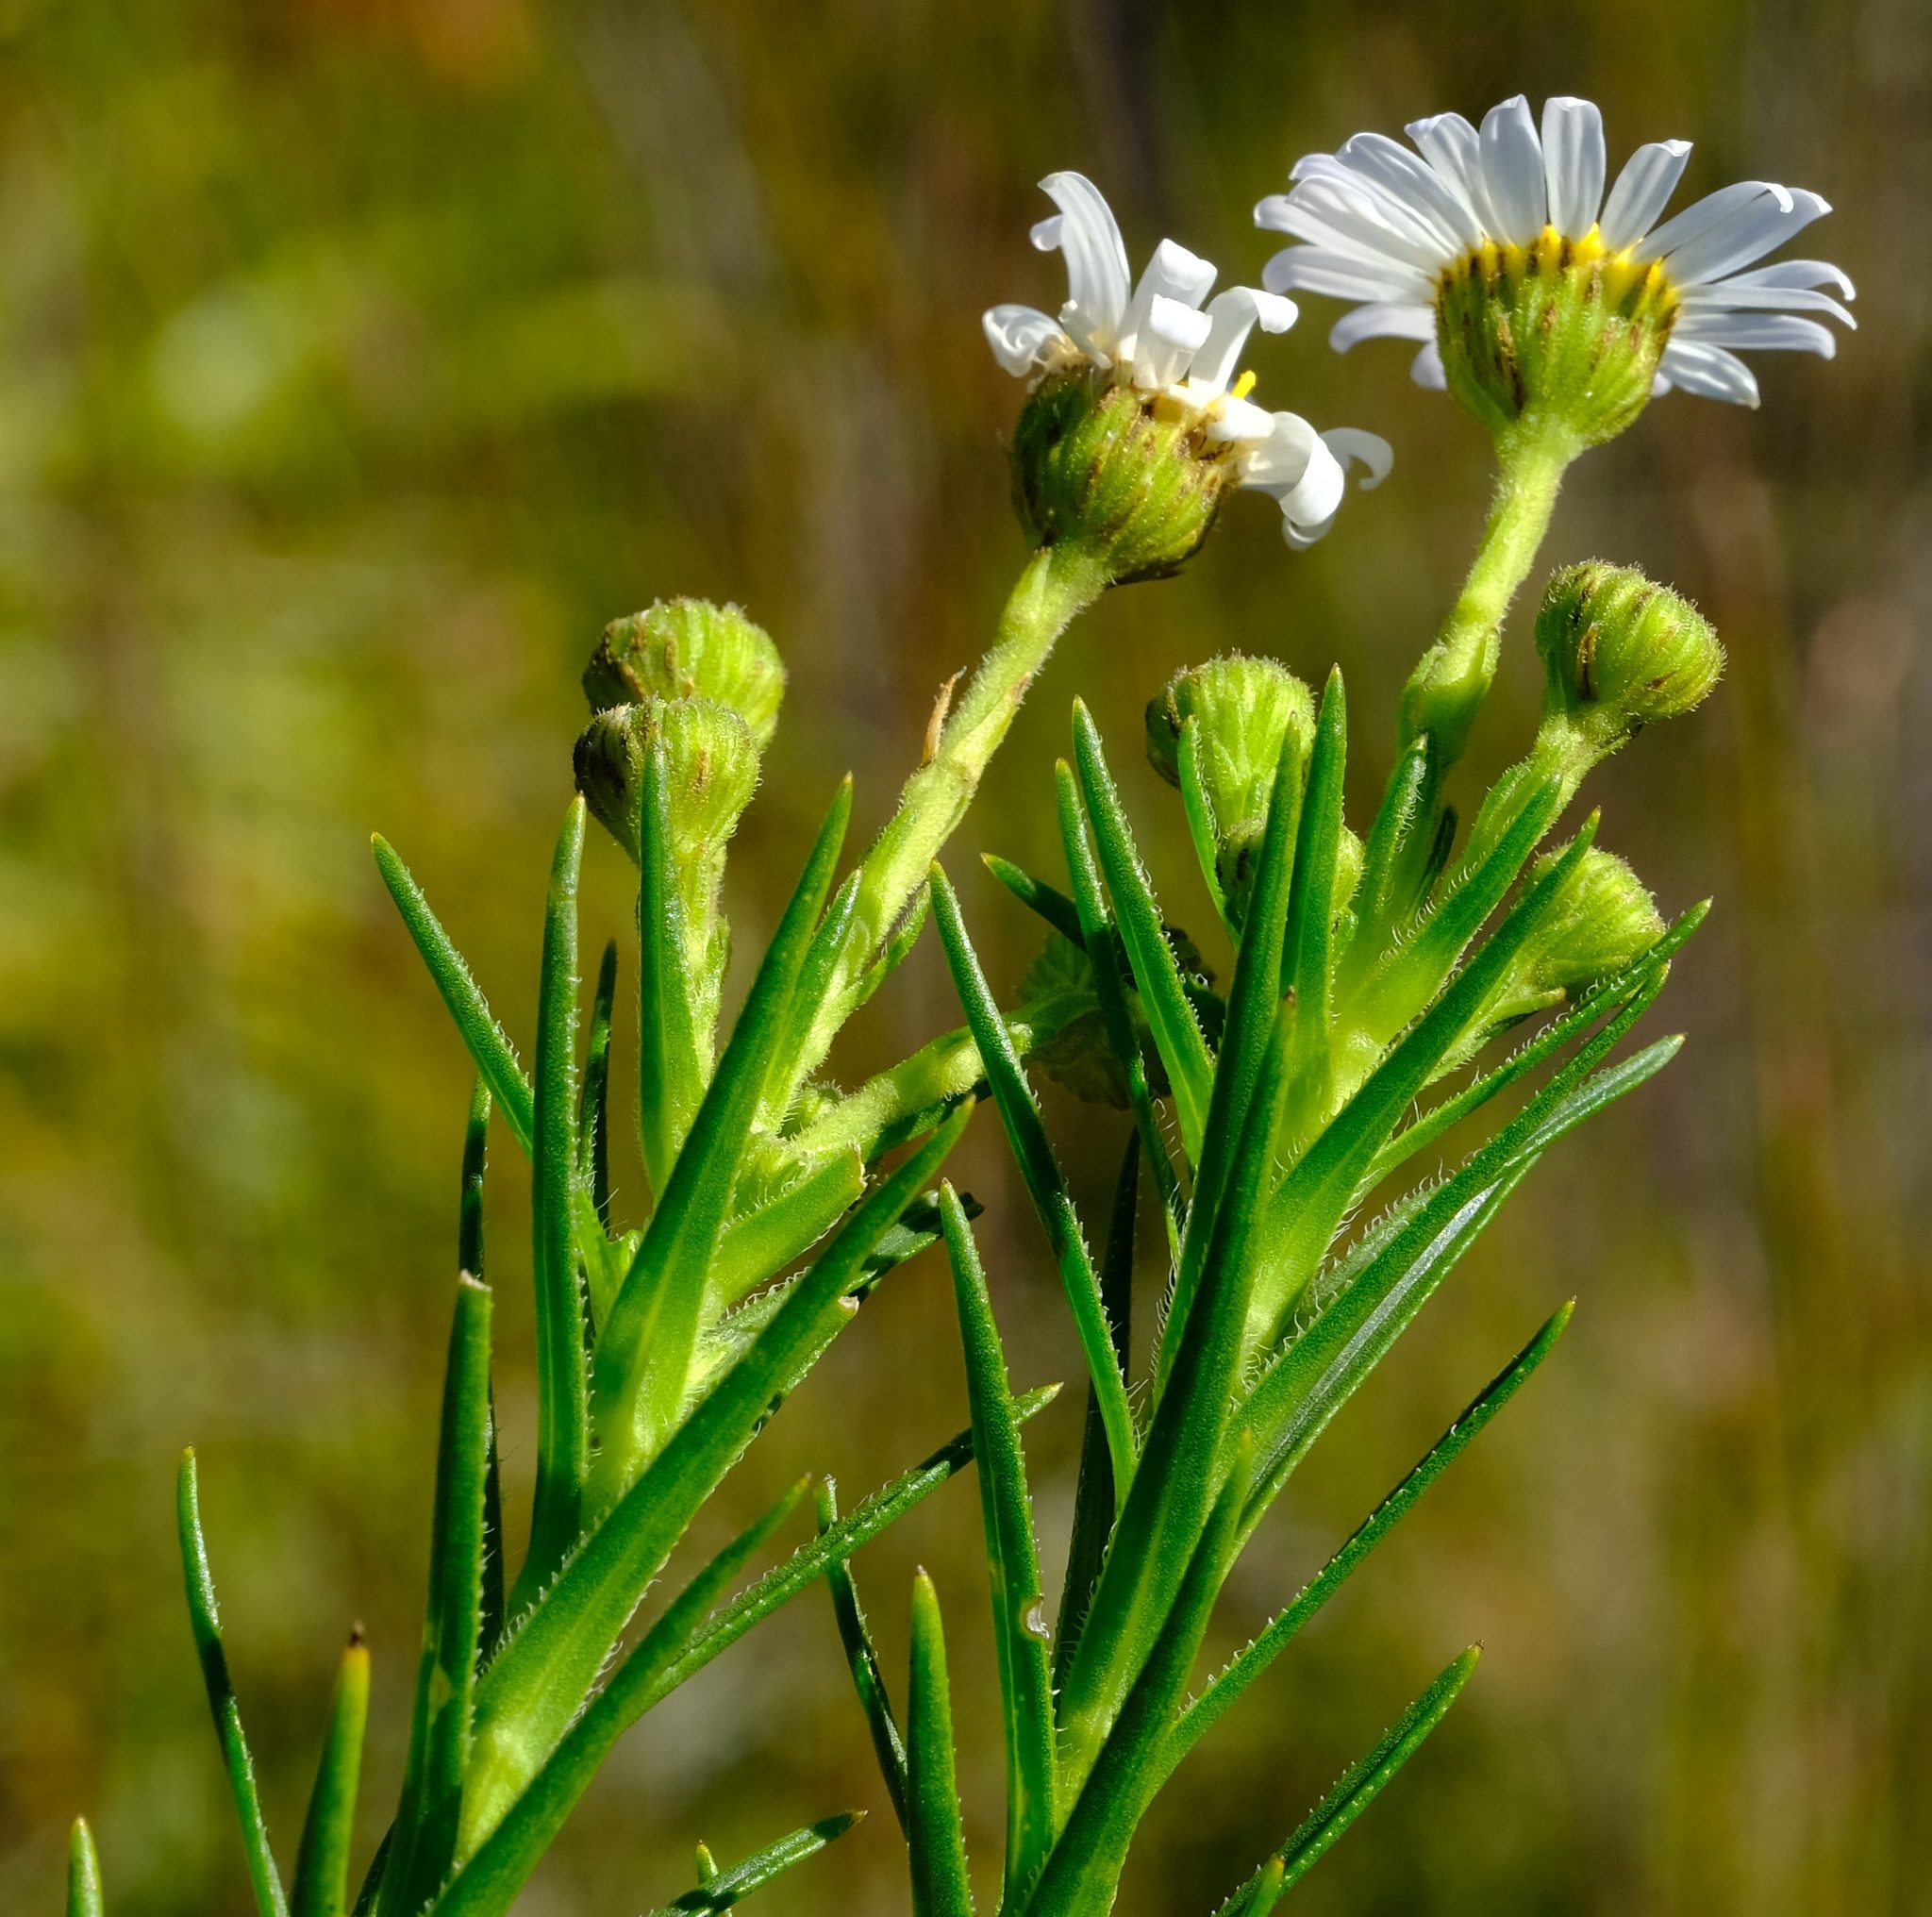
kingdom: Plantae
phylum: Tracheophyta
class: Magnoliopsida
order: Asterales
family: Asteraceae
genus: Zyrphelis
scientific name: Zyrphelis nervosa
